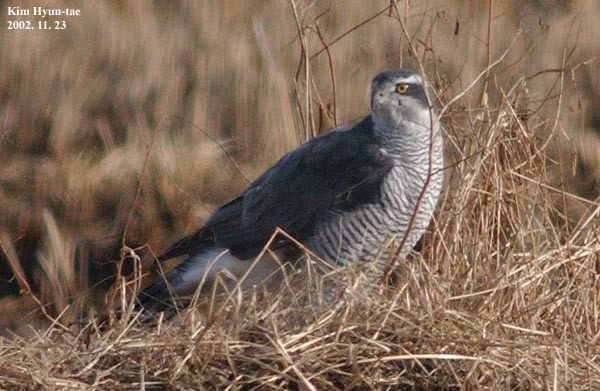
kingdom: Animalia
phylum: Chordata
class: Aves
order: Accipitriformes
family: Accipitridae
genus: Accipiter
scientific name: Accipiter gentilis
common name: Northern goshawk
